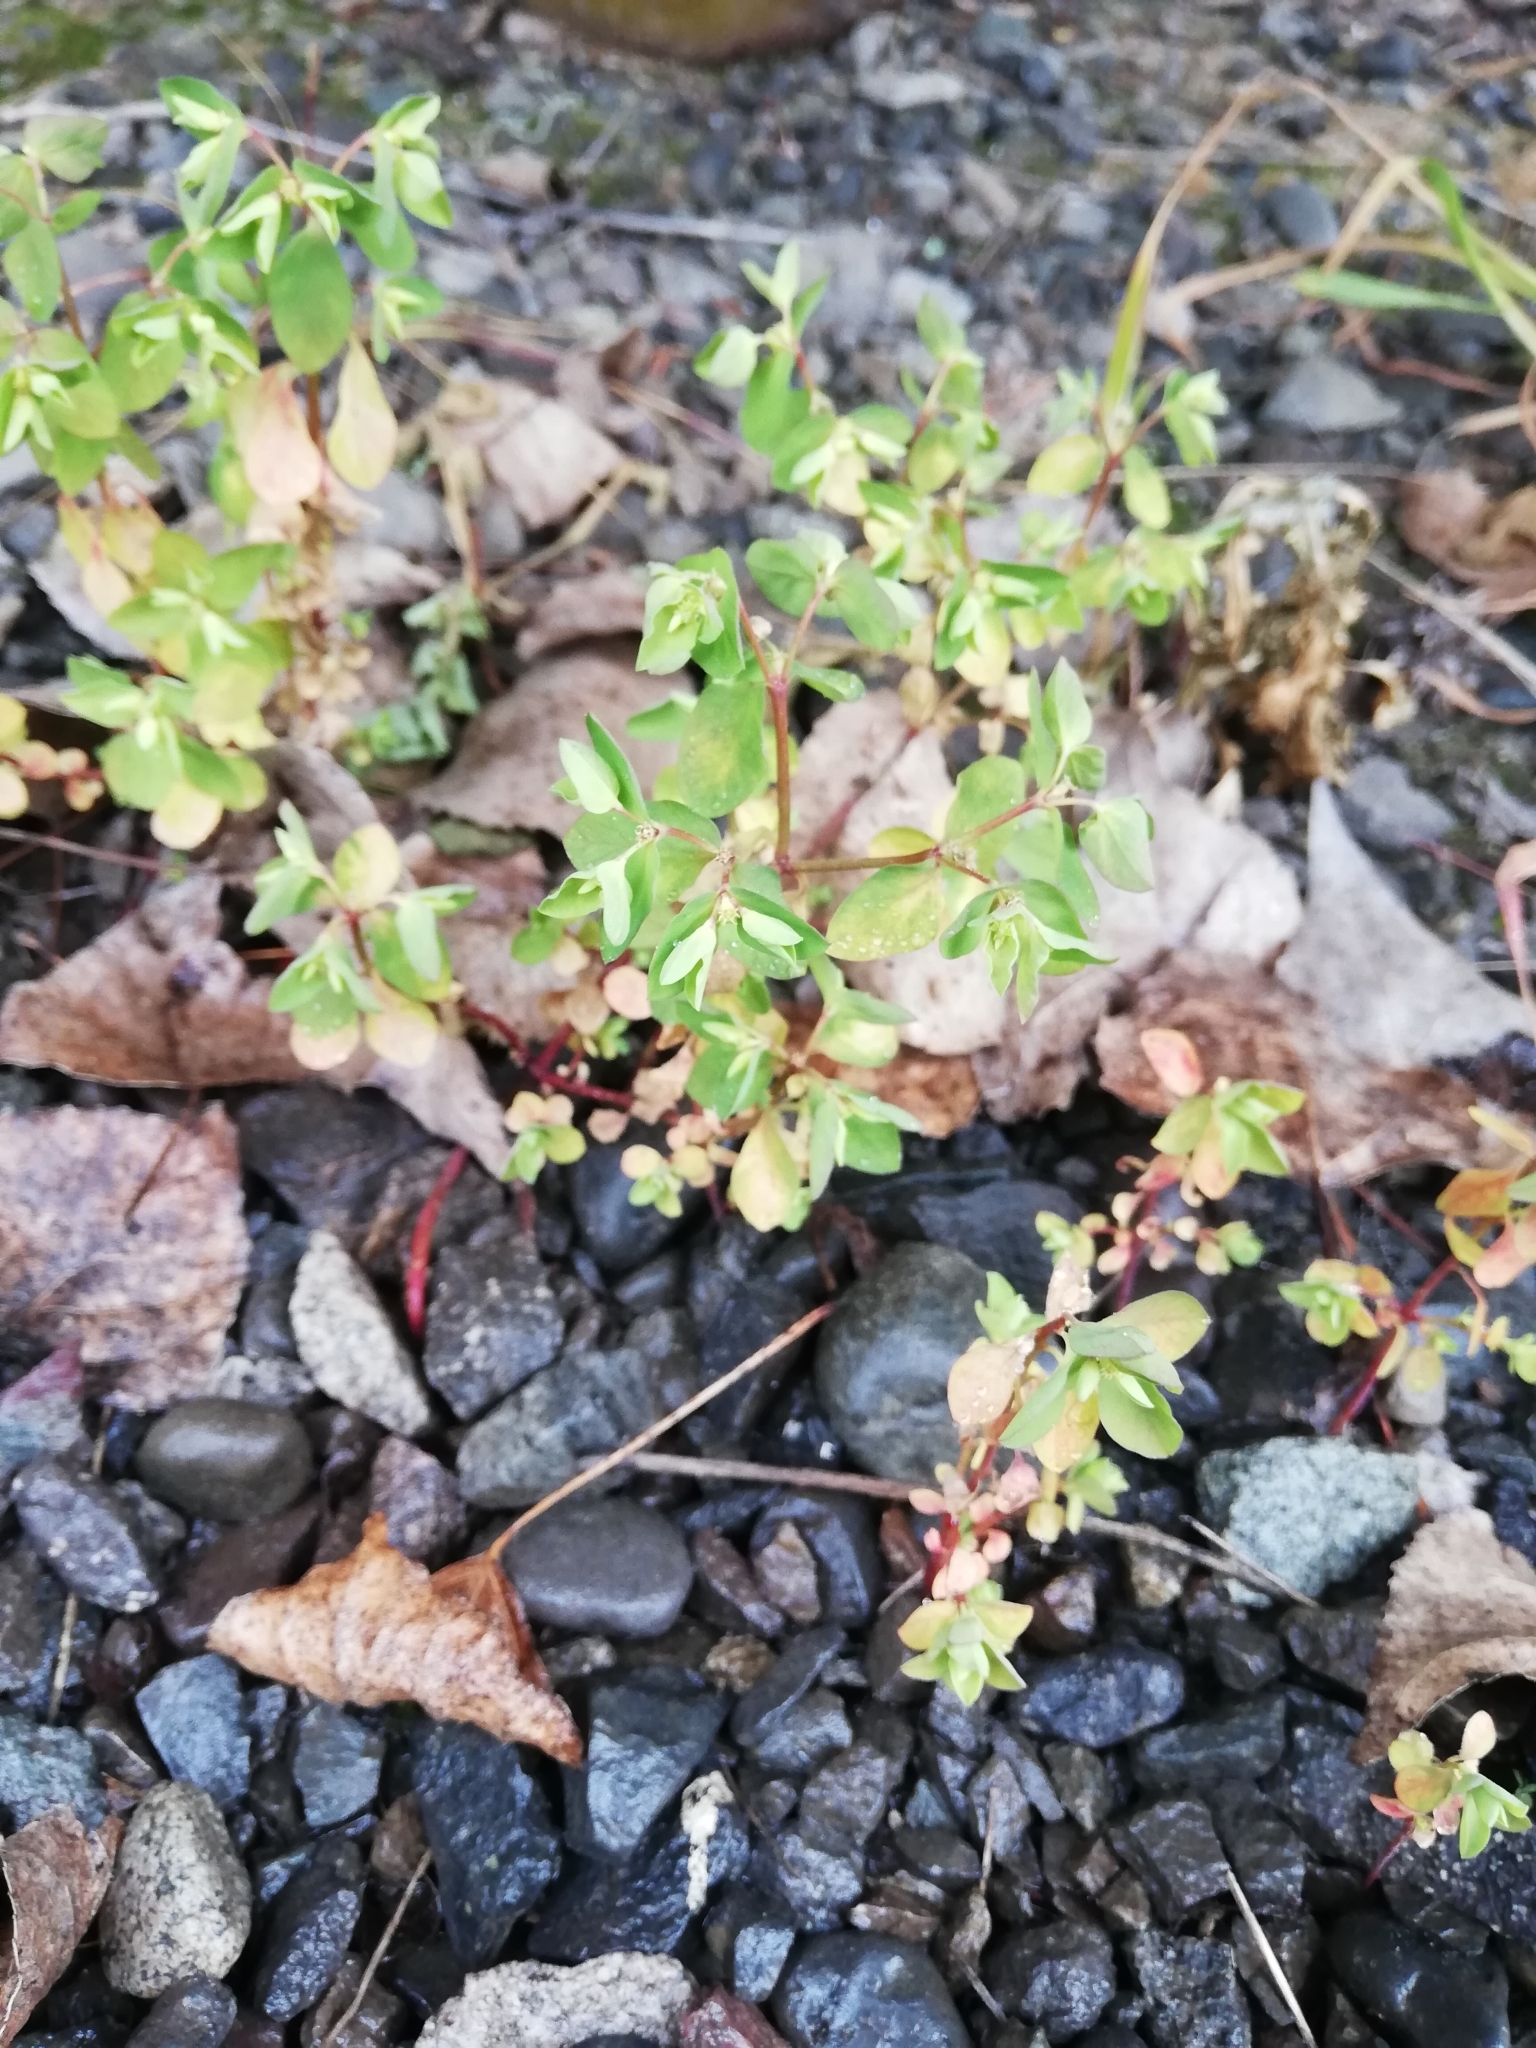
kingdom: Plantae
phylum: Tracheophyta
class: Magnoliopsida
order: Malpighiales
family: Euphorbiaceae
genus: Euphorbia
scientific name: Euphorbia peplus
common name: Petty spurge
